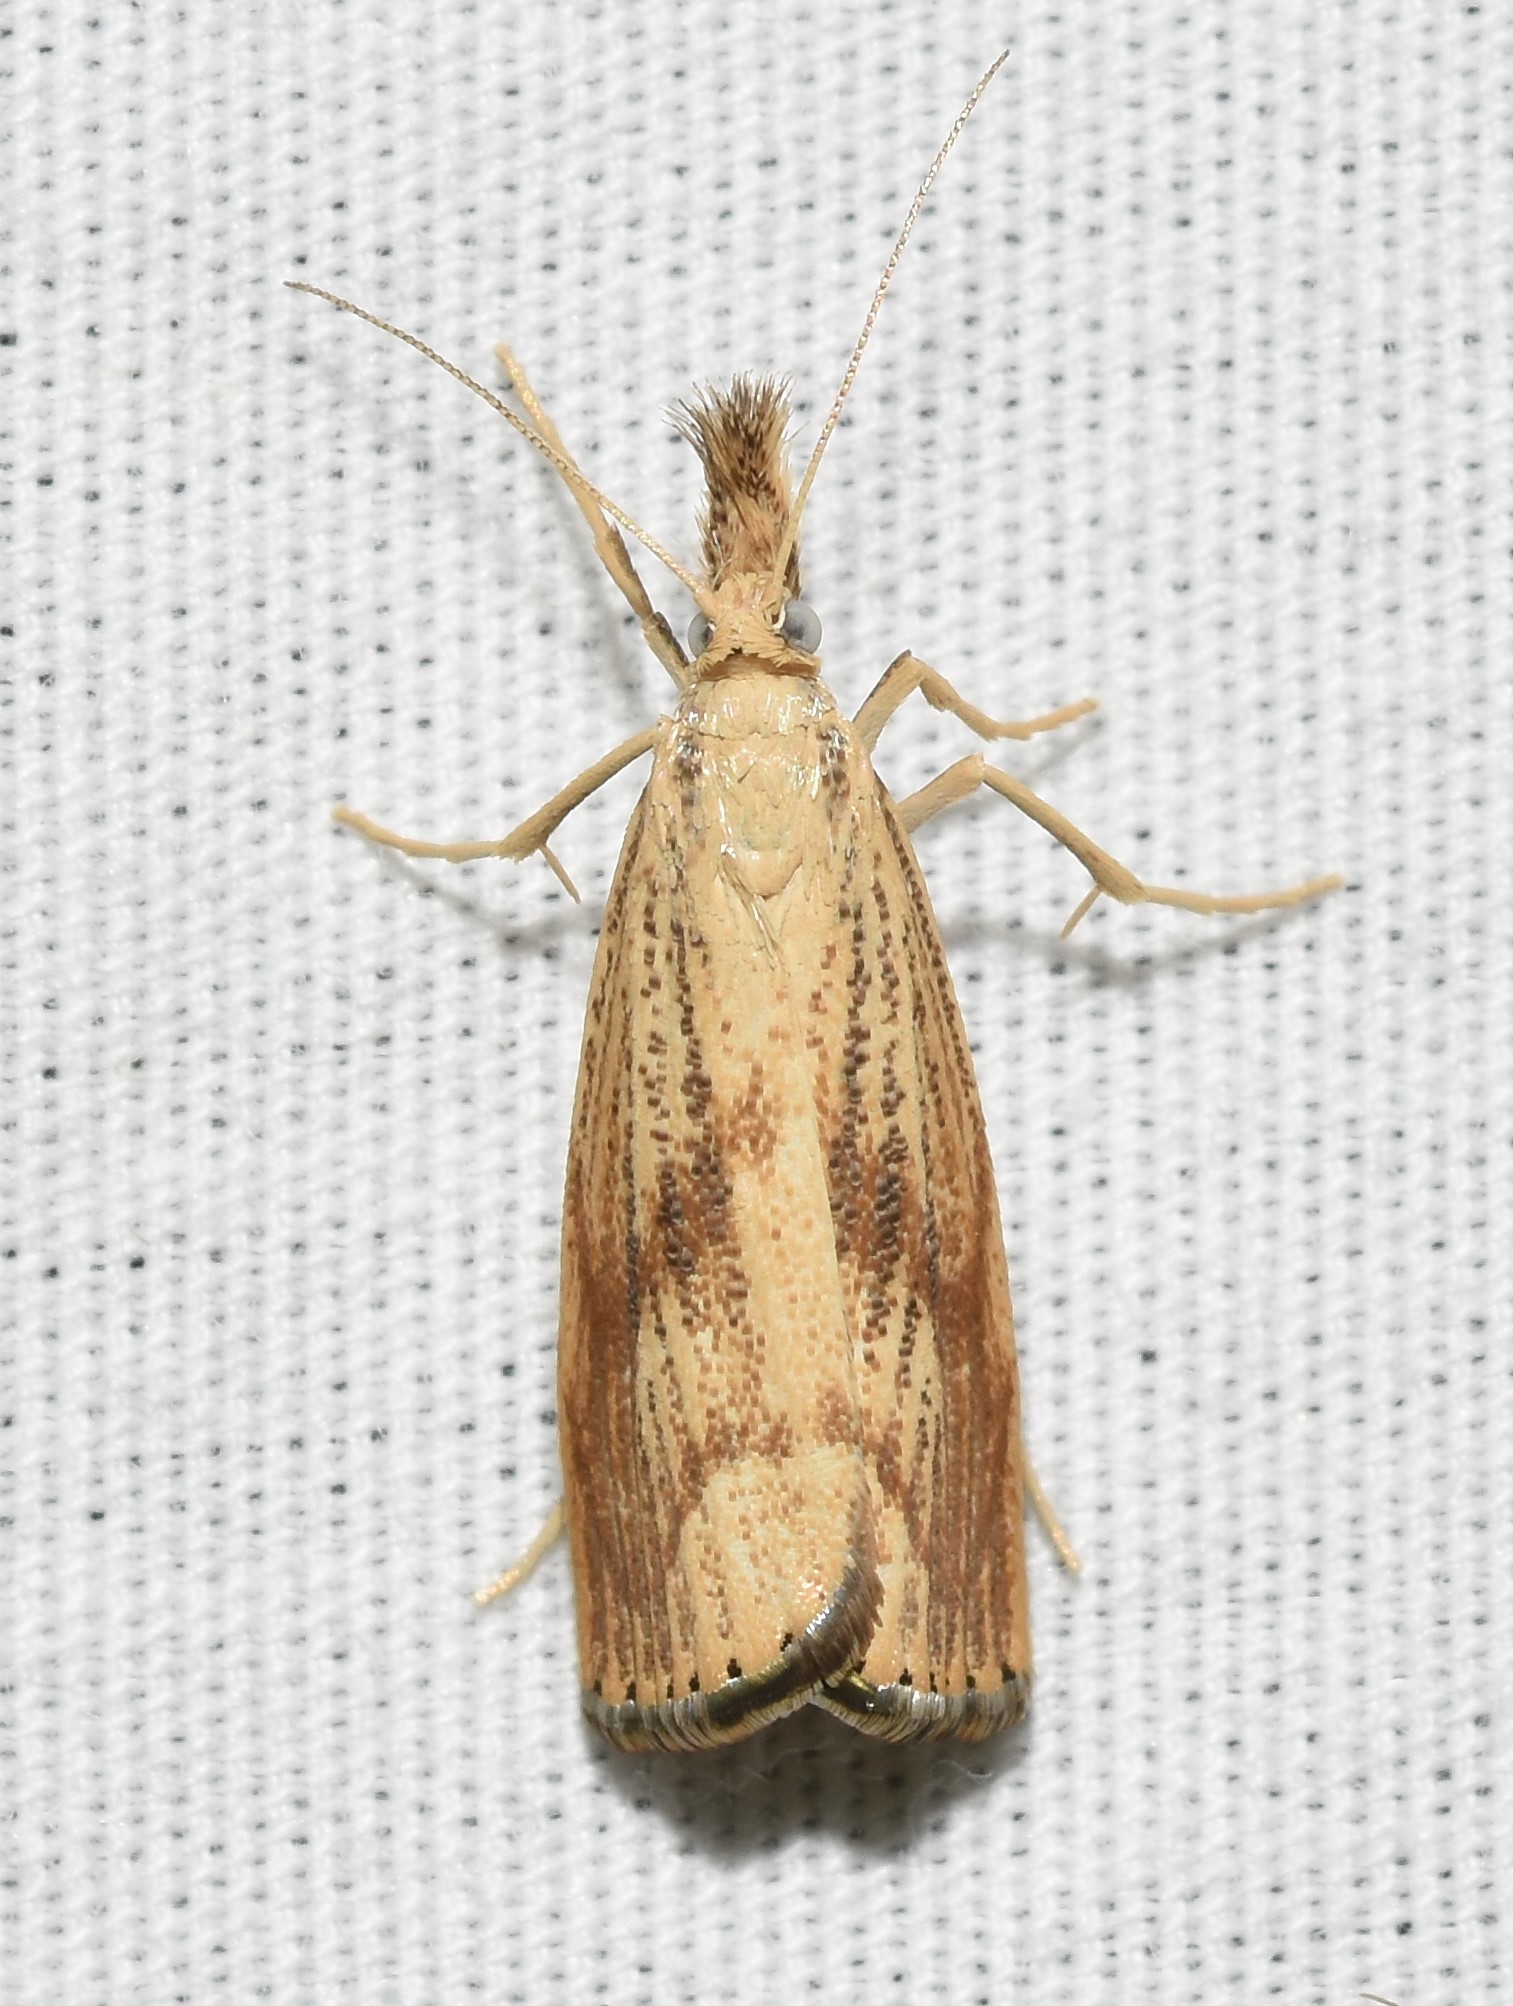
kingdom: Animalia
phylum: Arthropoda
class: Insecta
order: Lepidoptera
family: Crambidae
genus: Agriphila
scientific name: Agriphila ruricolellus
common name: Lesser vagabond sod webworm
